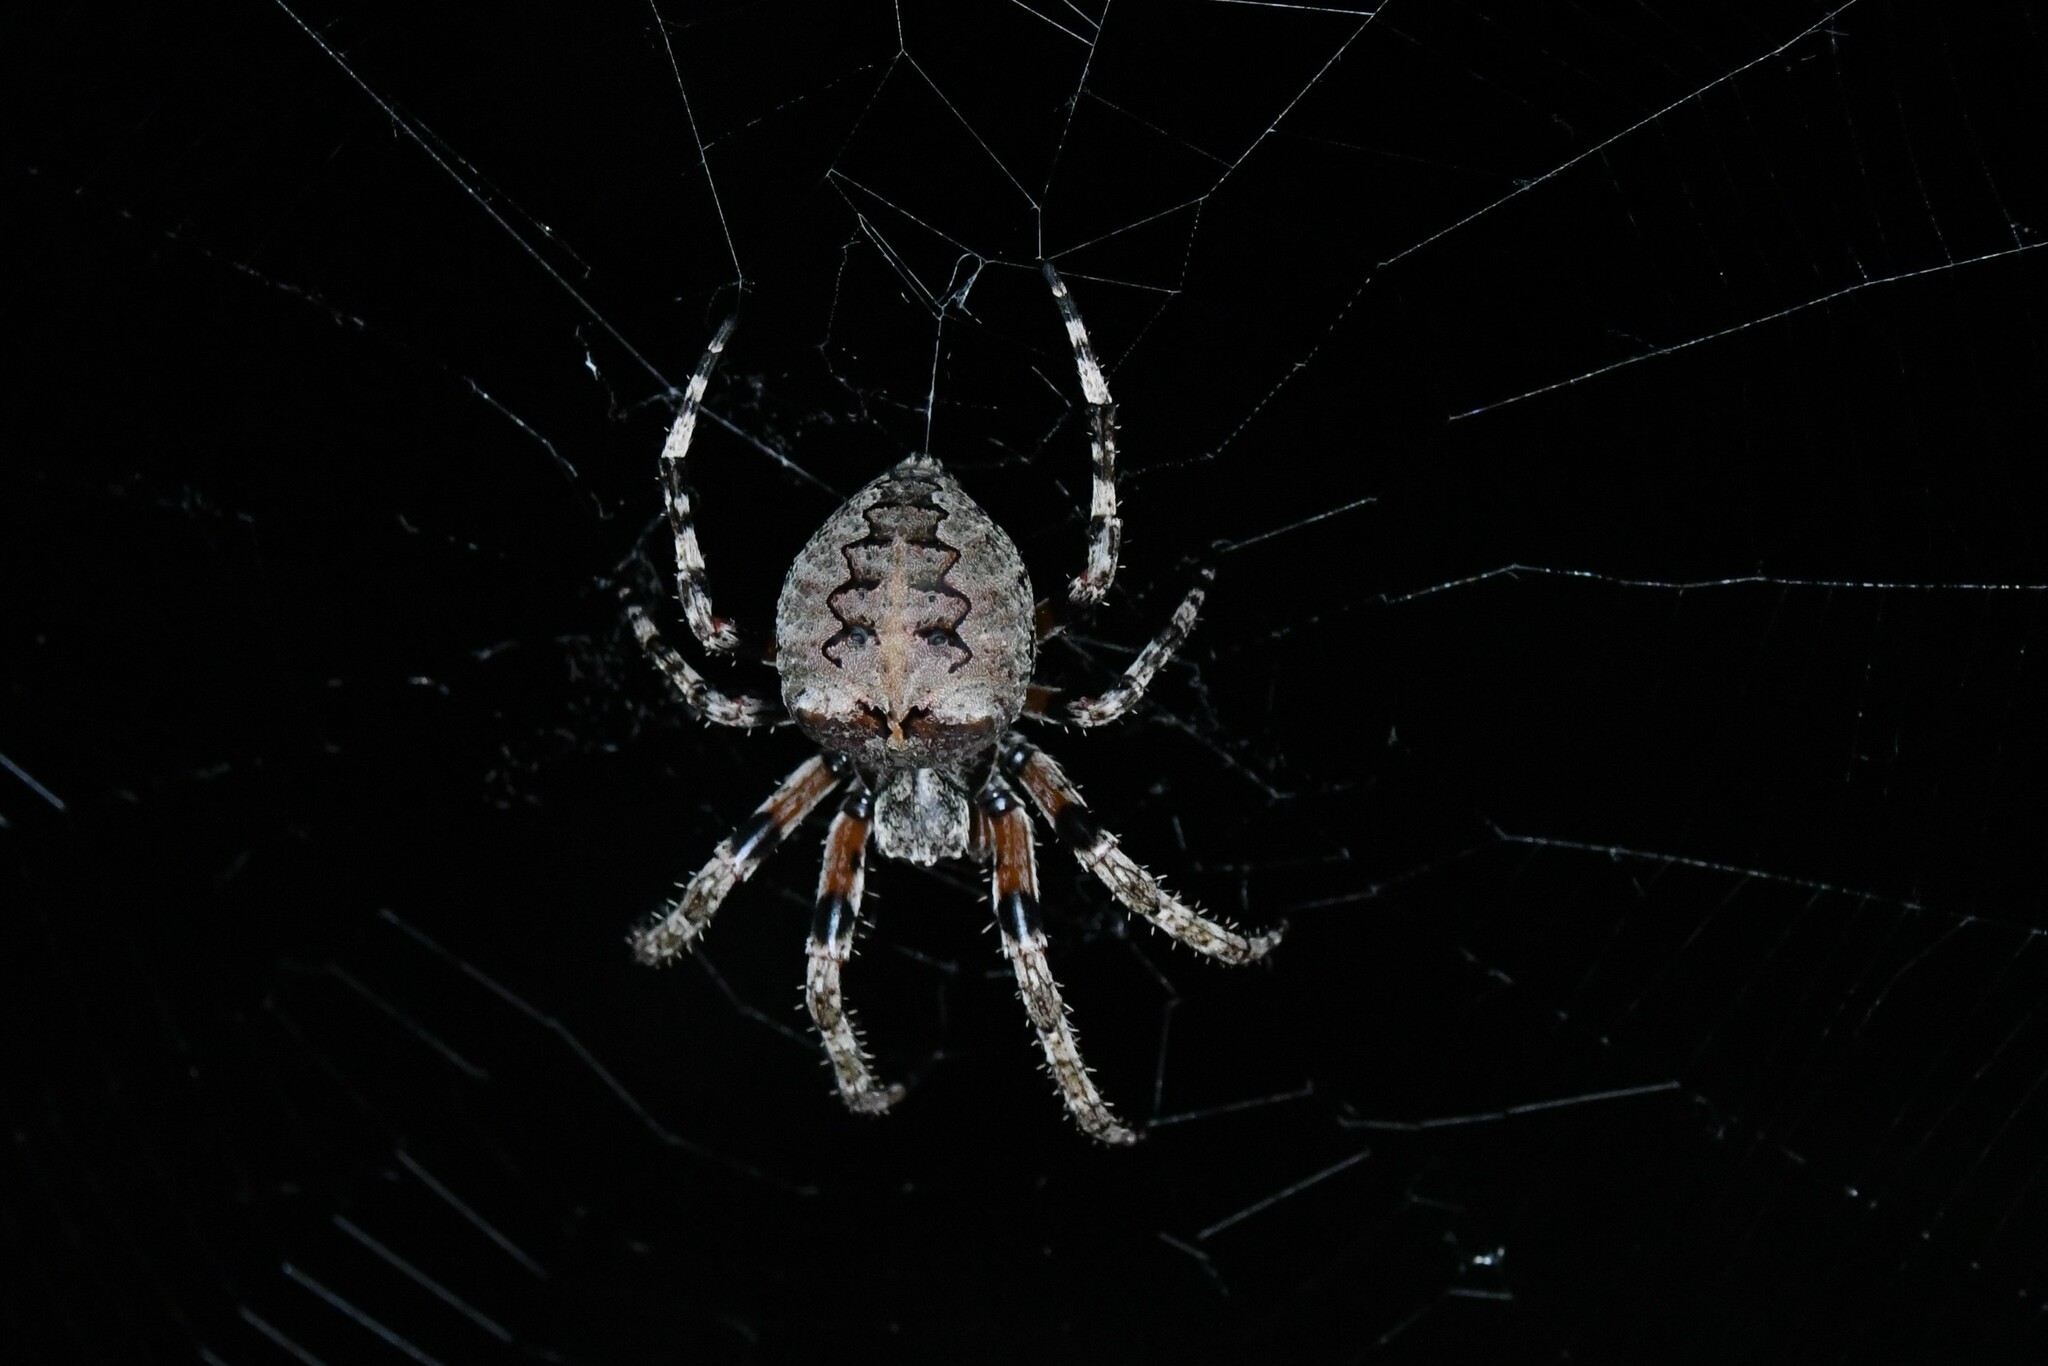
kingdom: Animalia
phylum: Arthropoda
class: Arachnida
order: Araneae
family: Araneidae
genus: Araneus
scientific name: Araneus bicentenarius
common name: Giant lichen orbweaver
